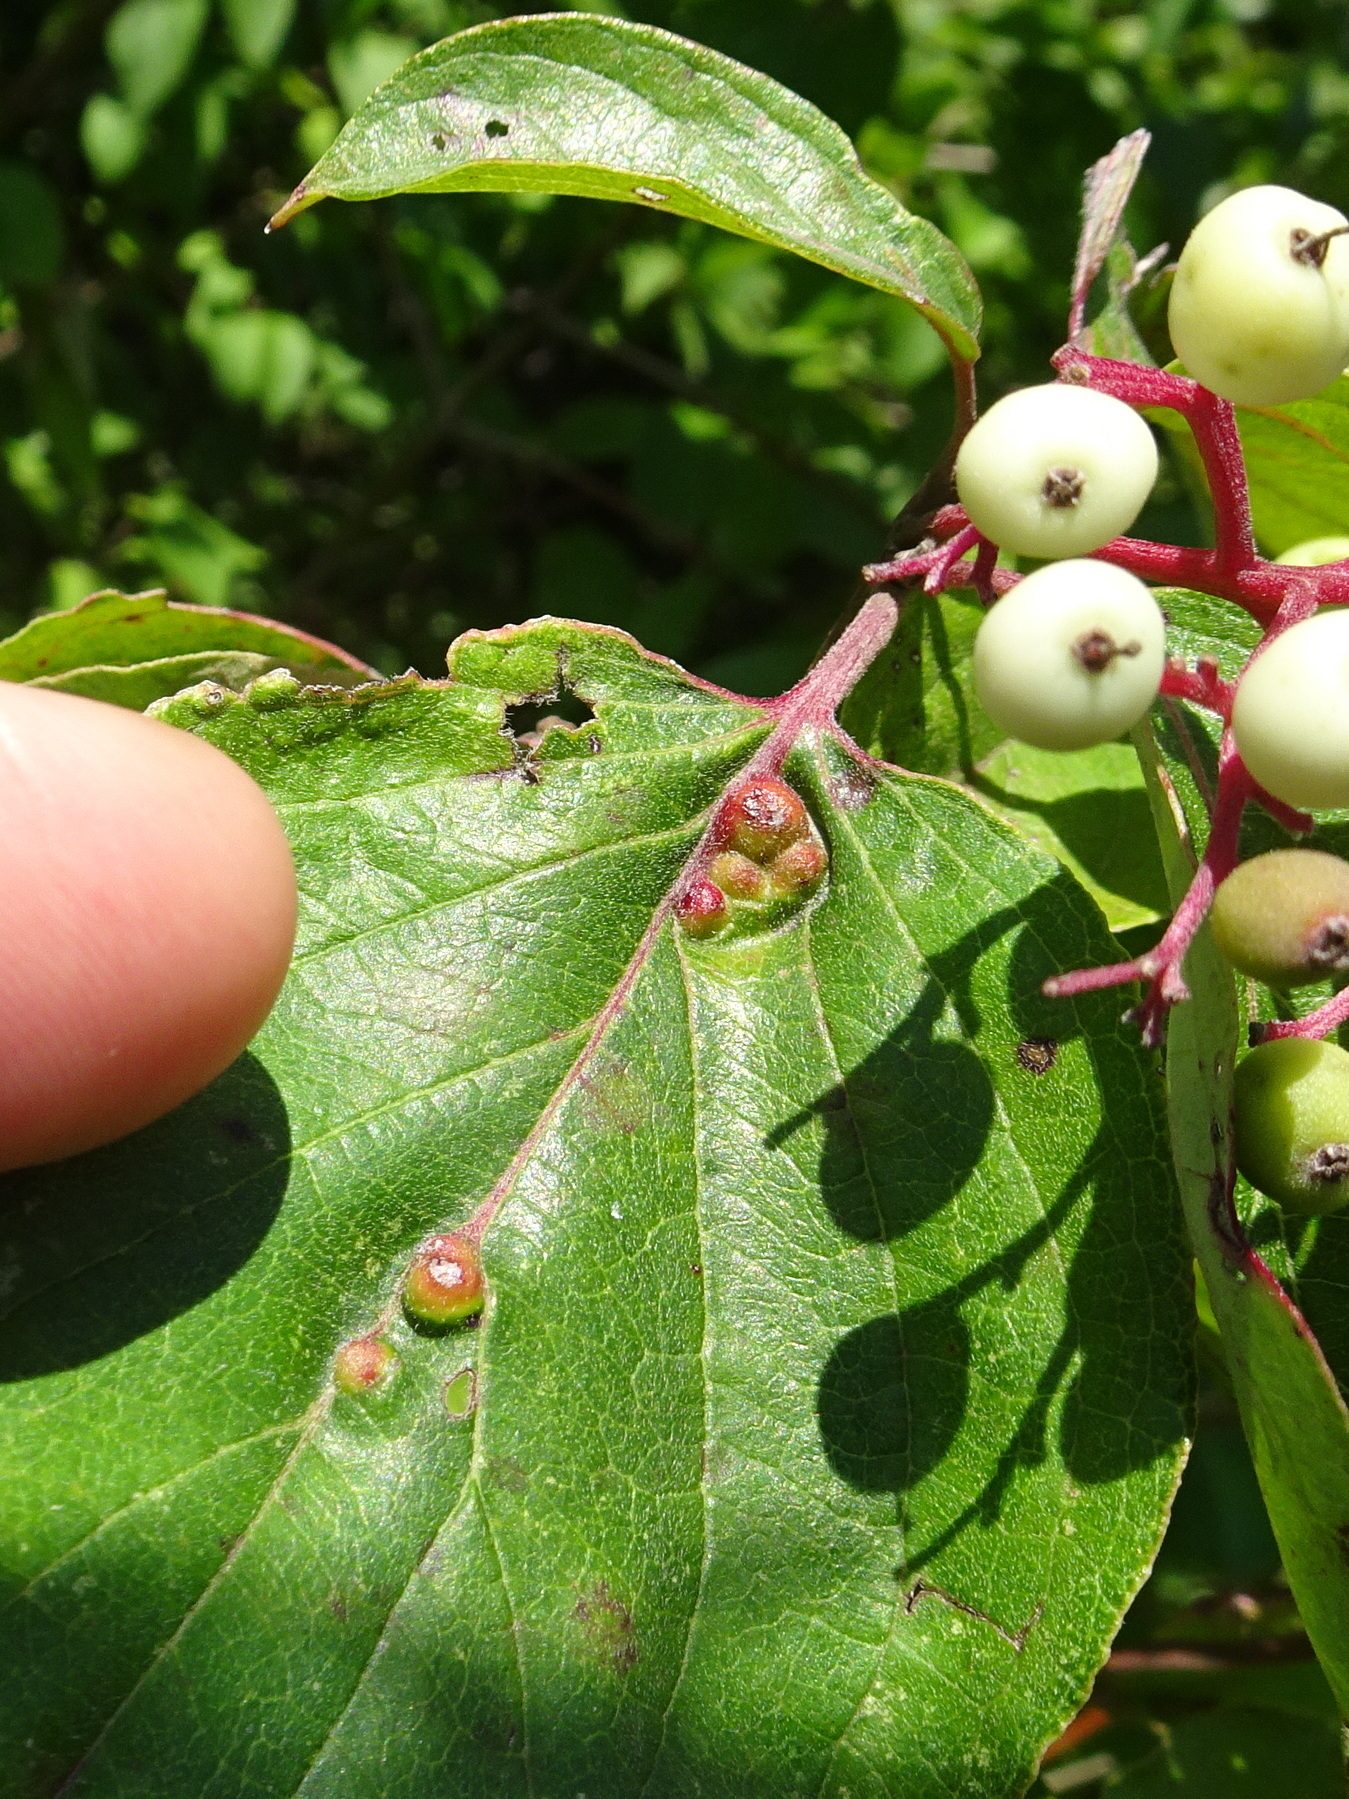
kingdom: Animalia
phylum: Arthropoda
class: Insecta
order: Diptera
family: Cecidomyiidae
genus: Dasineura
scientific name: Dasineura tuba
